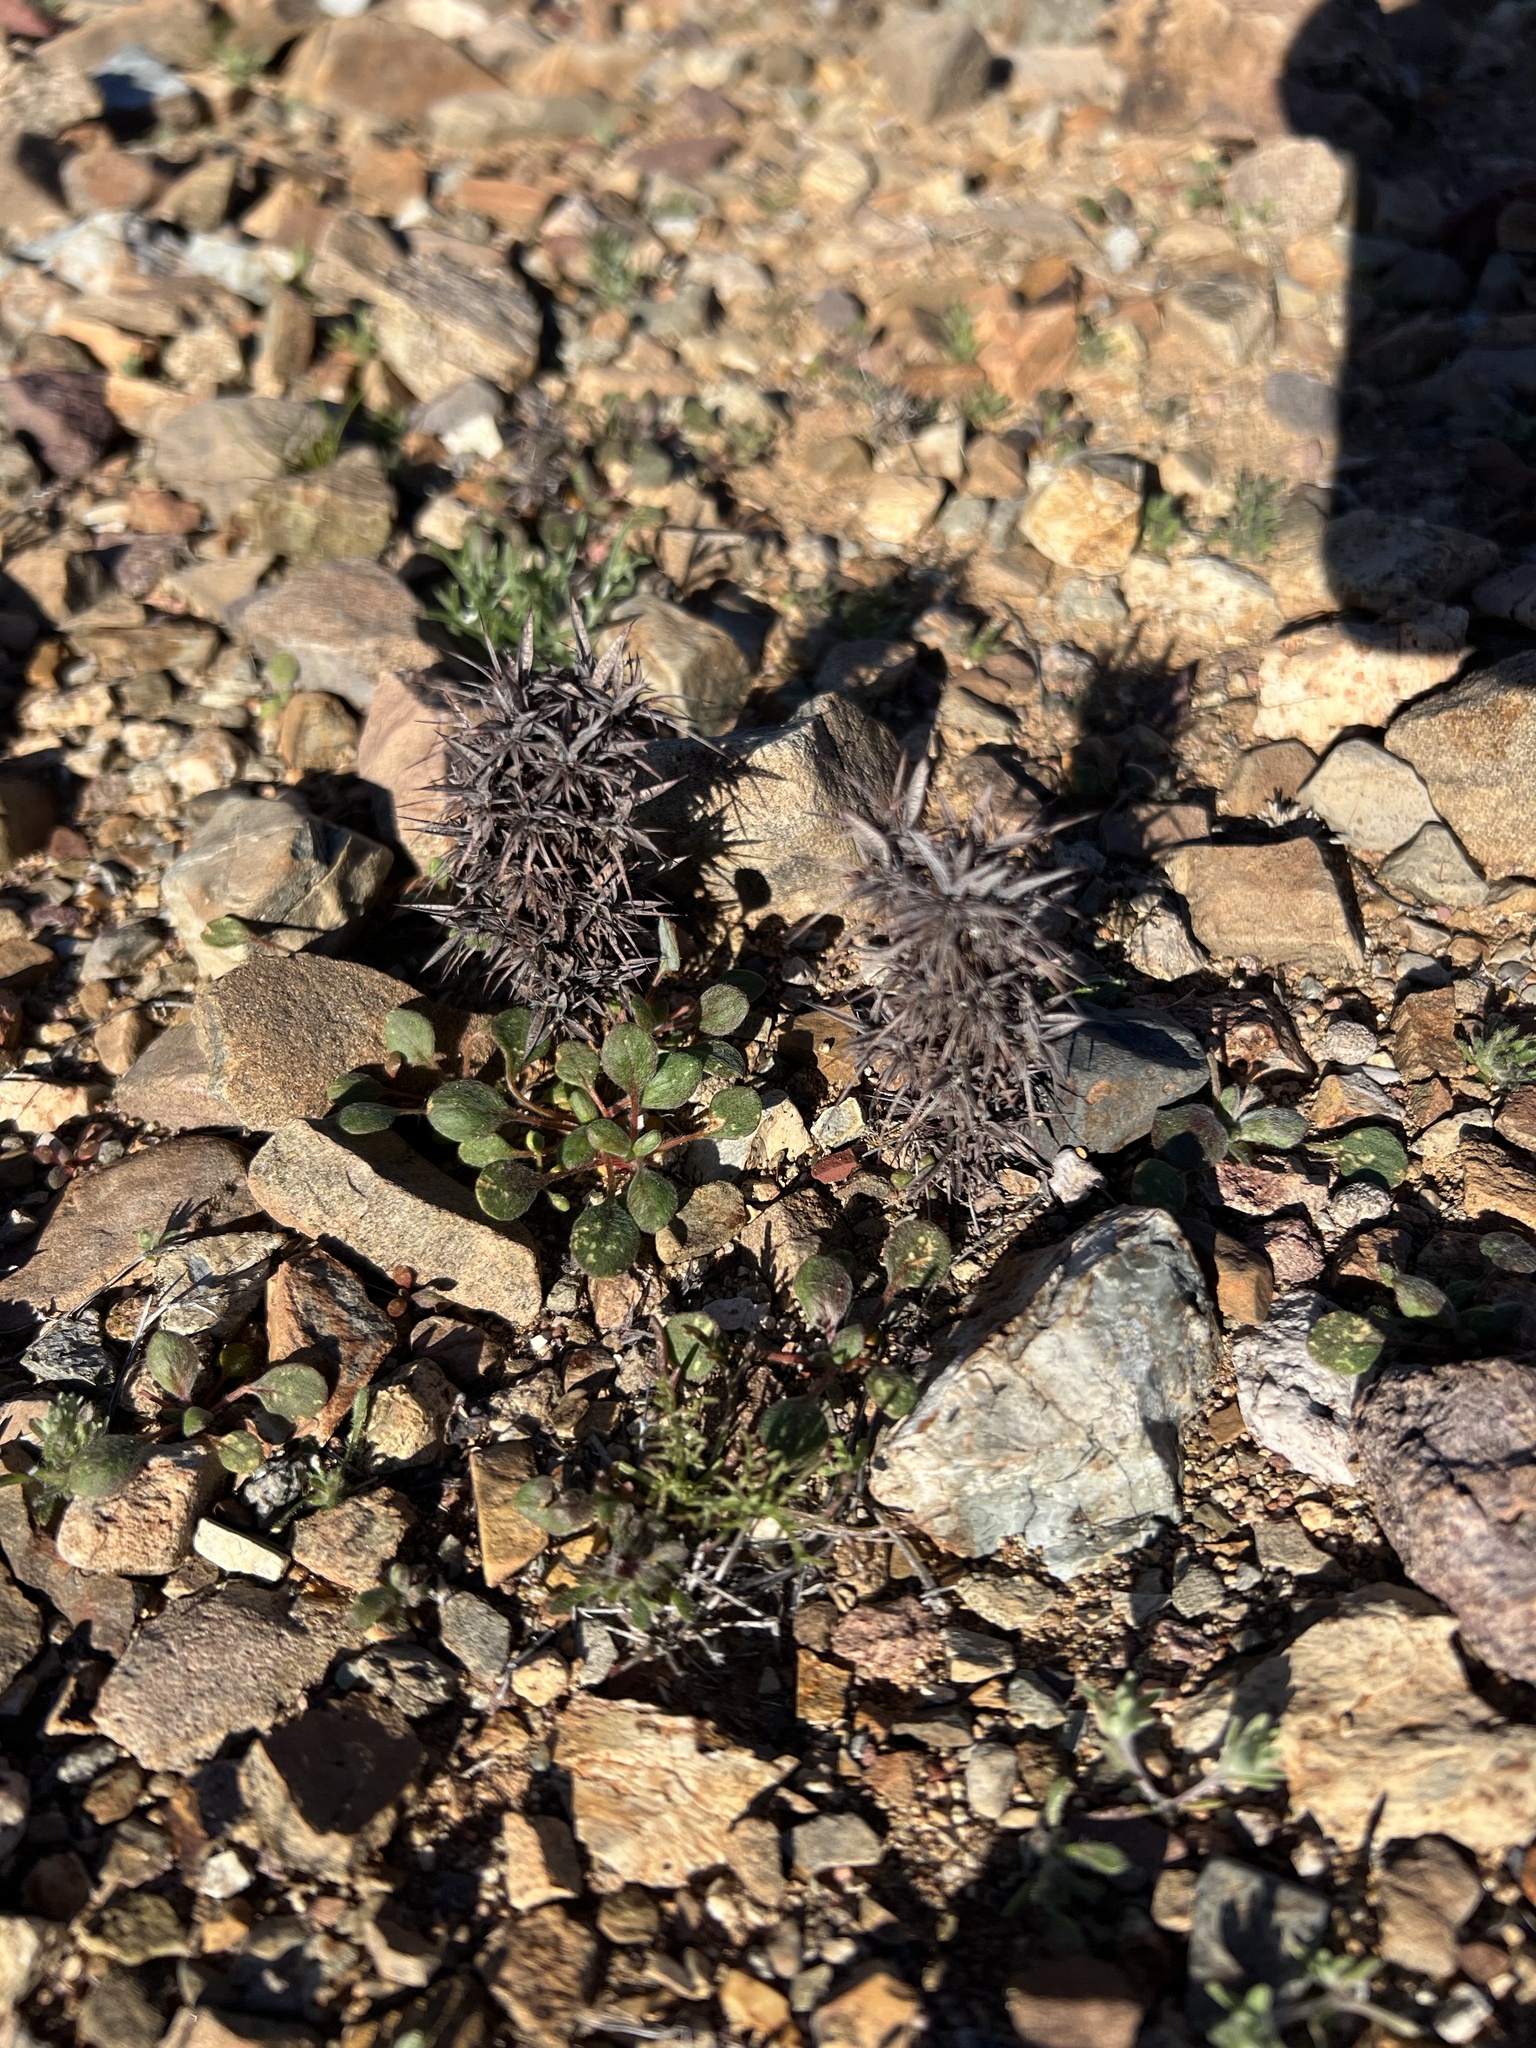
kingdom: Plantae
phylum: Tracheophyta
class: Magnoliopsida
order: Caryophyllales
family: Polygonaceae
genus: Chorizanthe
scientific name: Chorizanthe rigida
